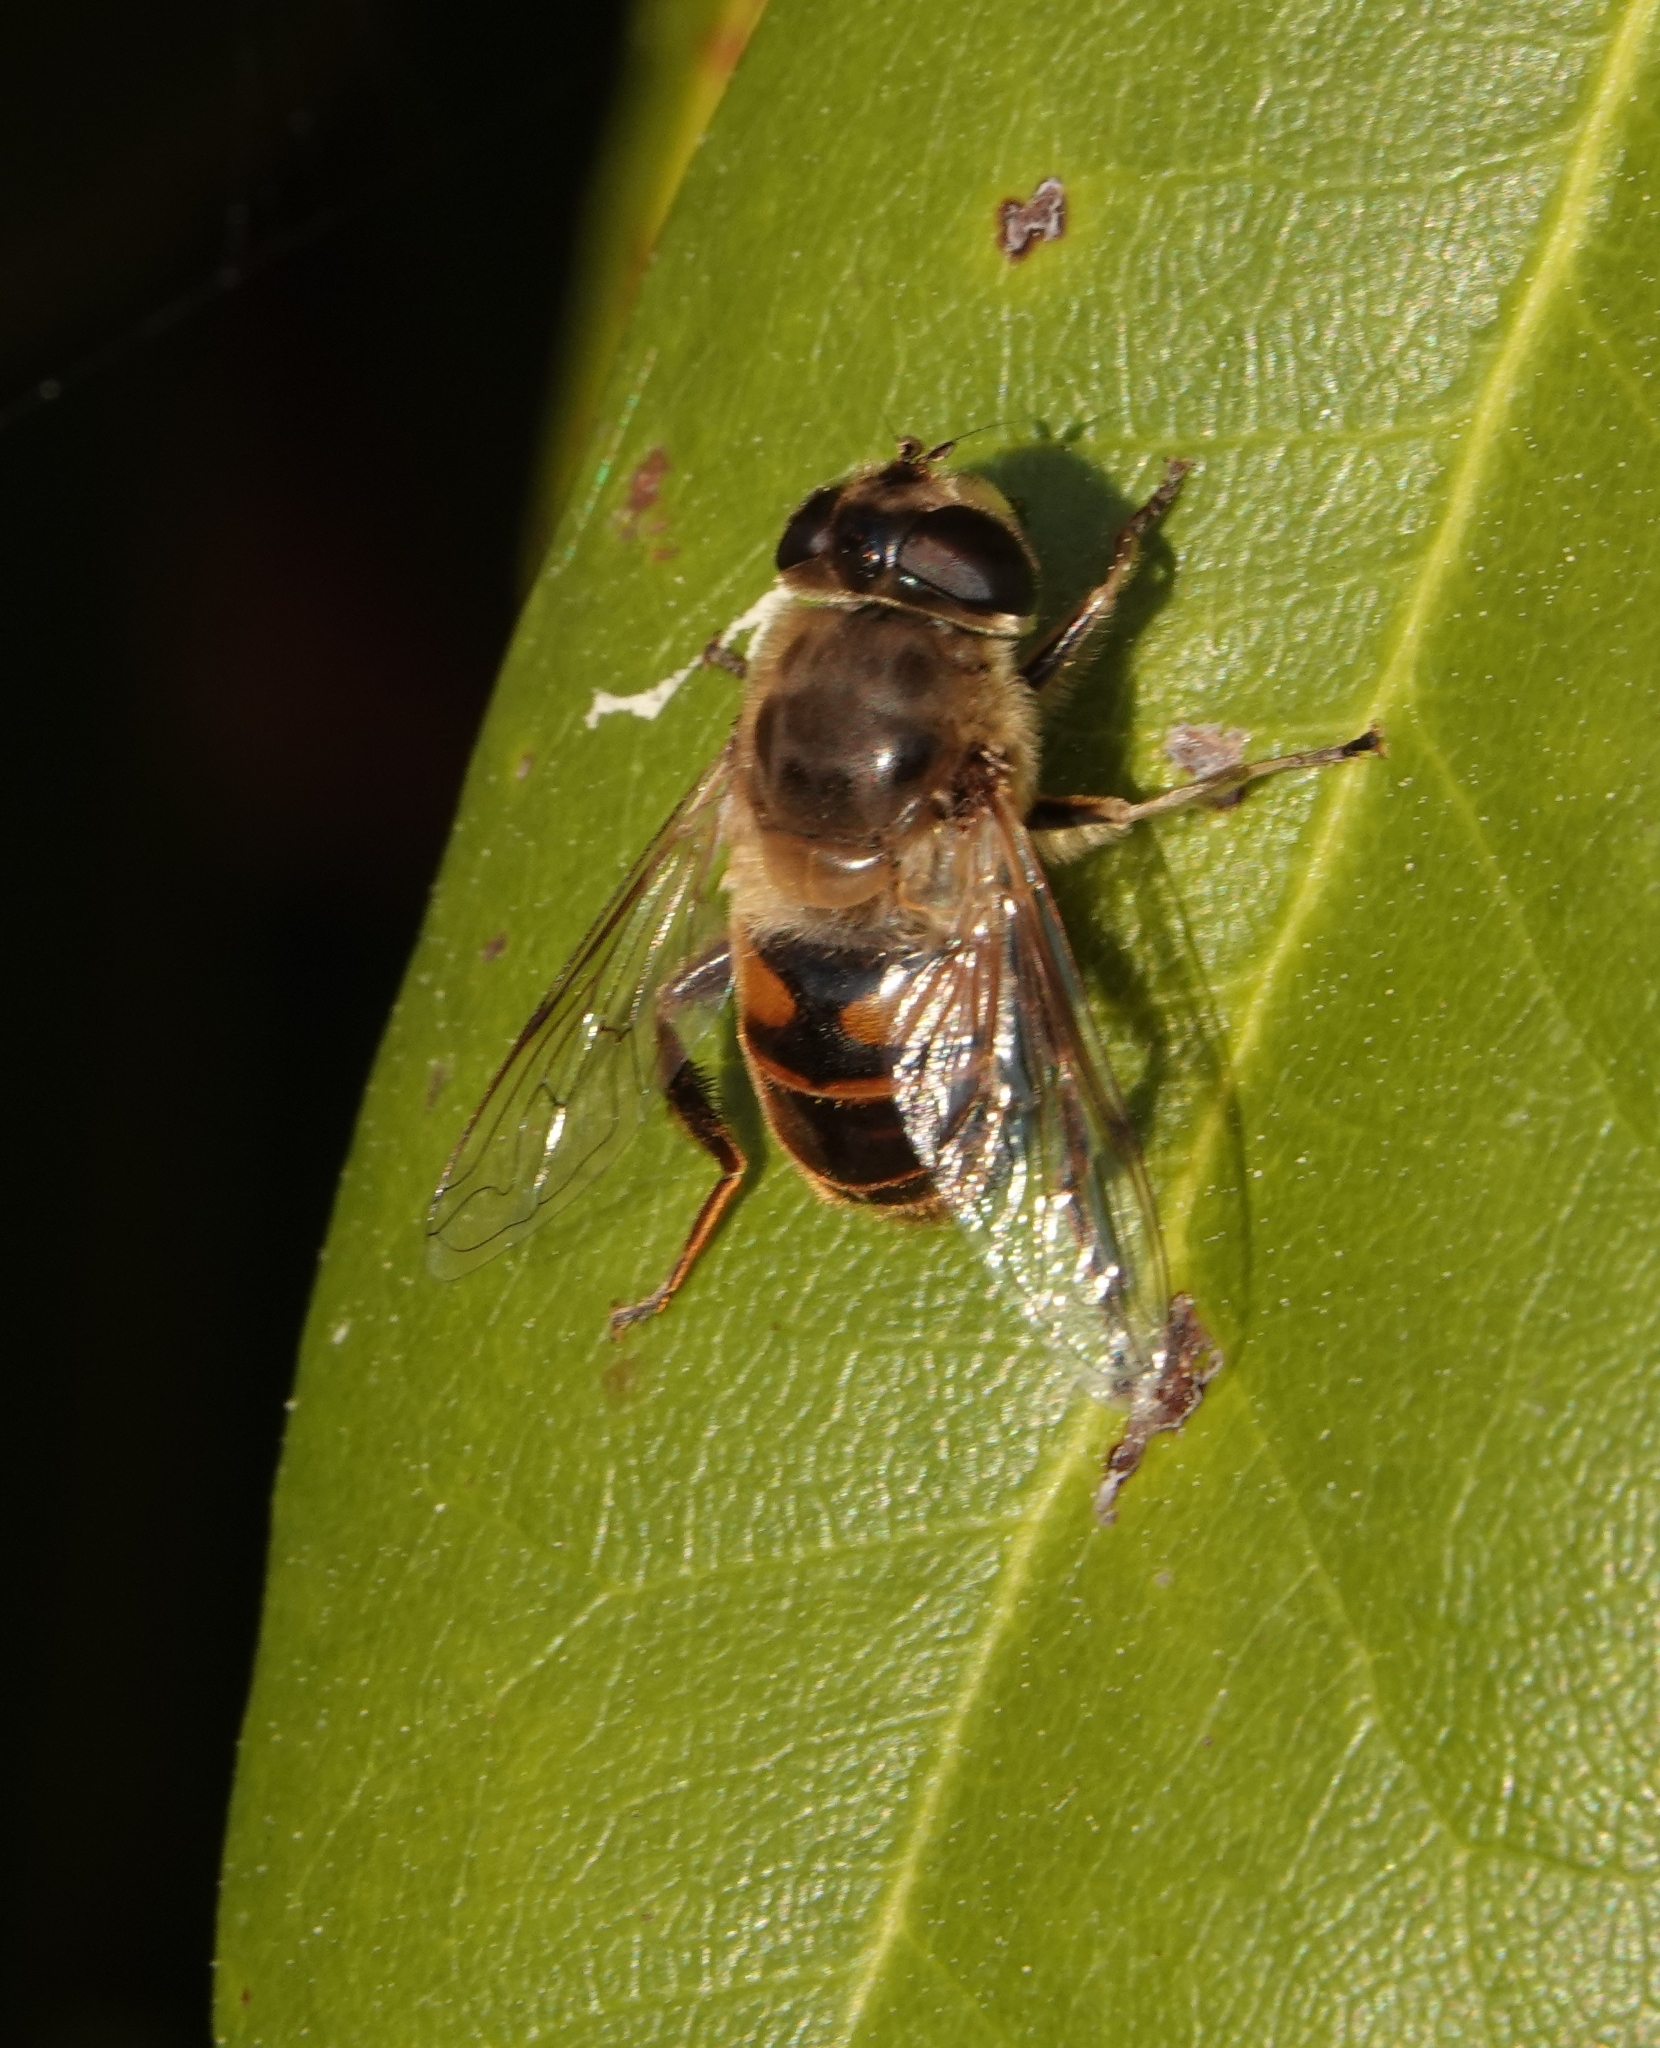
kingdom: Animalia
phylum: Arthropoda
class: Insecta
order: Diptera
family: Syrphidae
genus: Eristalis
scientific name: Eristalis tenax
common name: Drone fly
